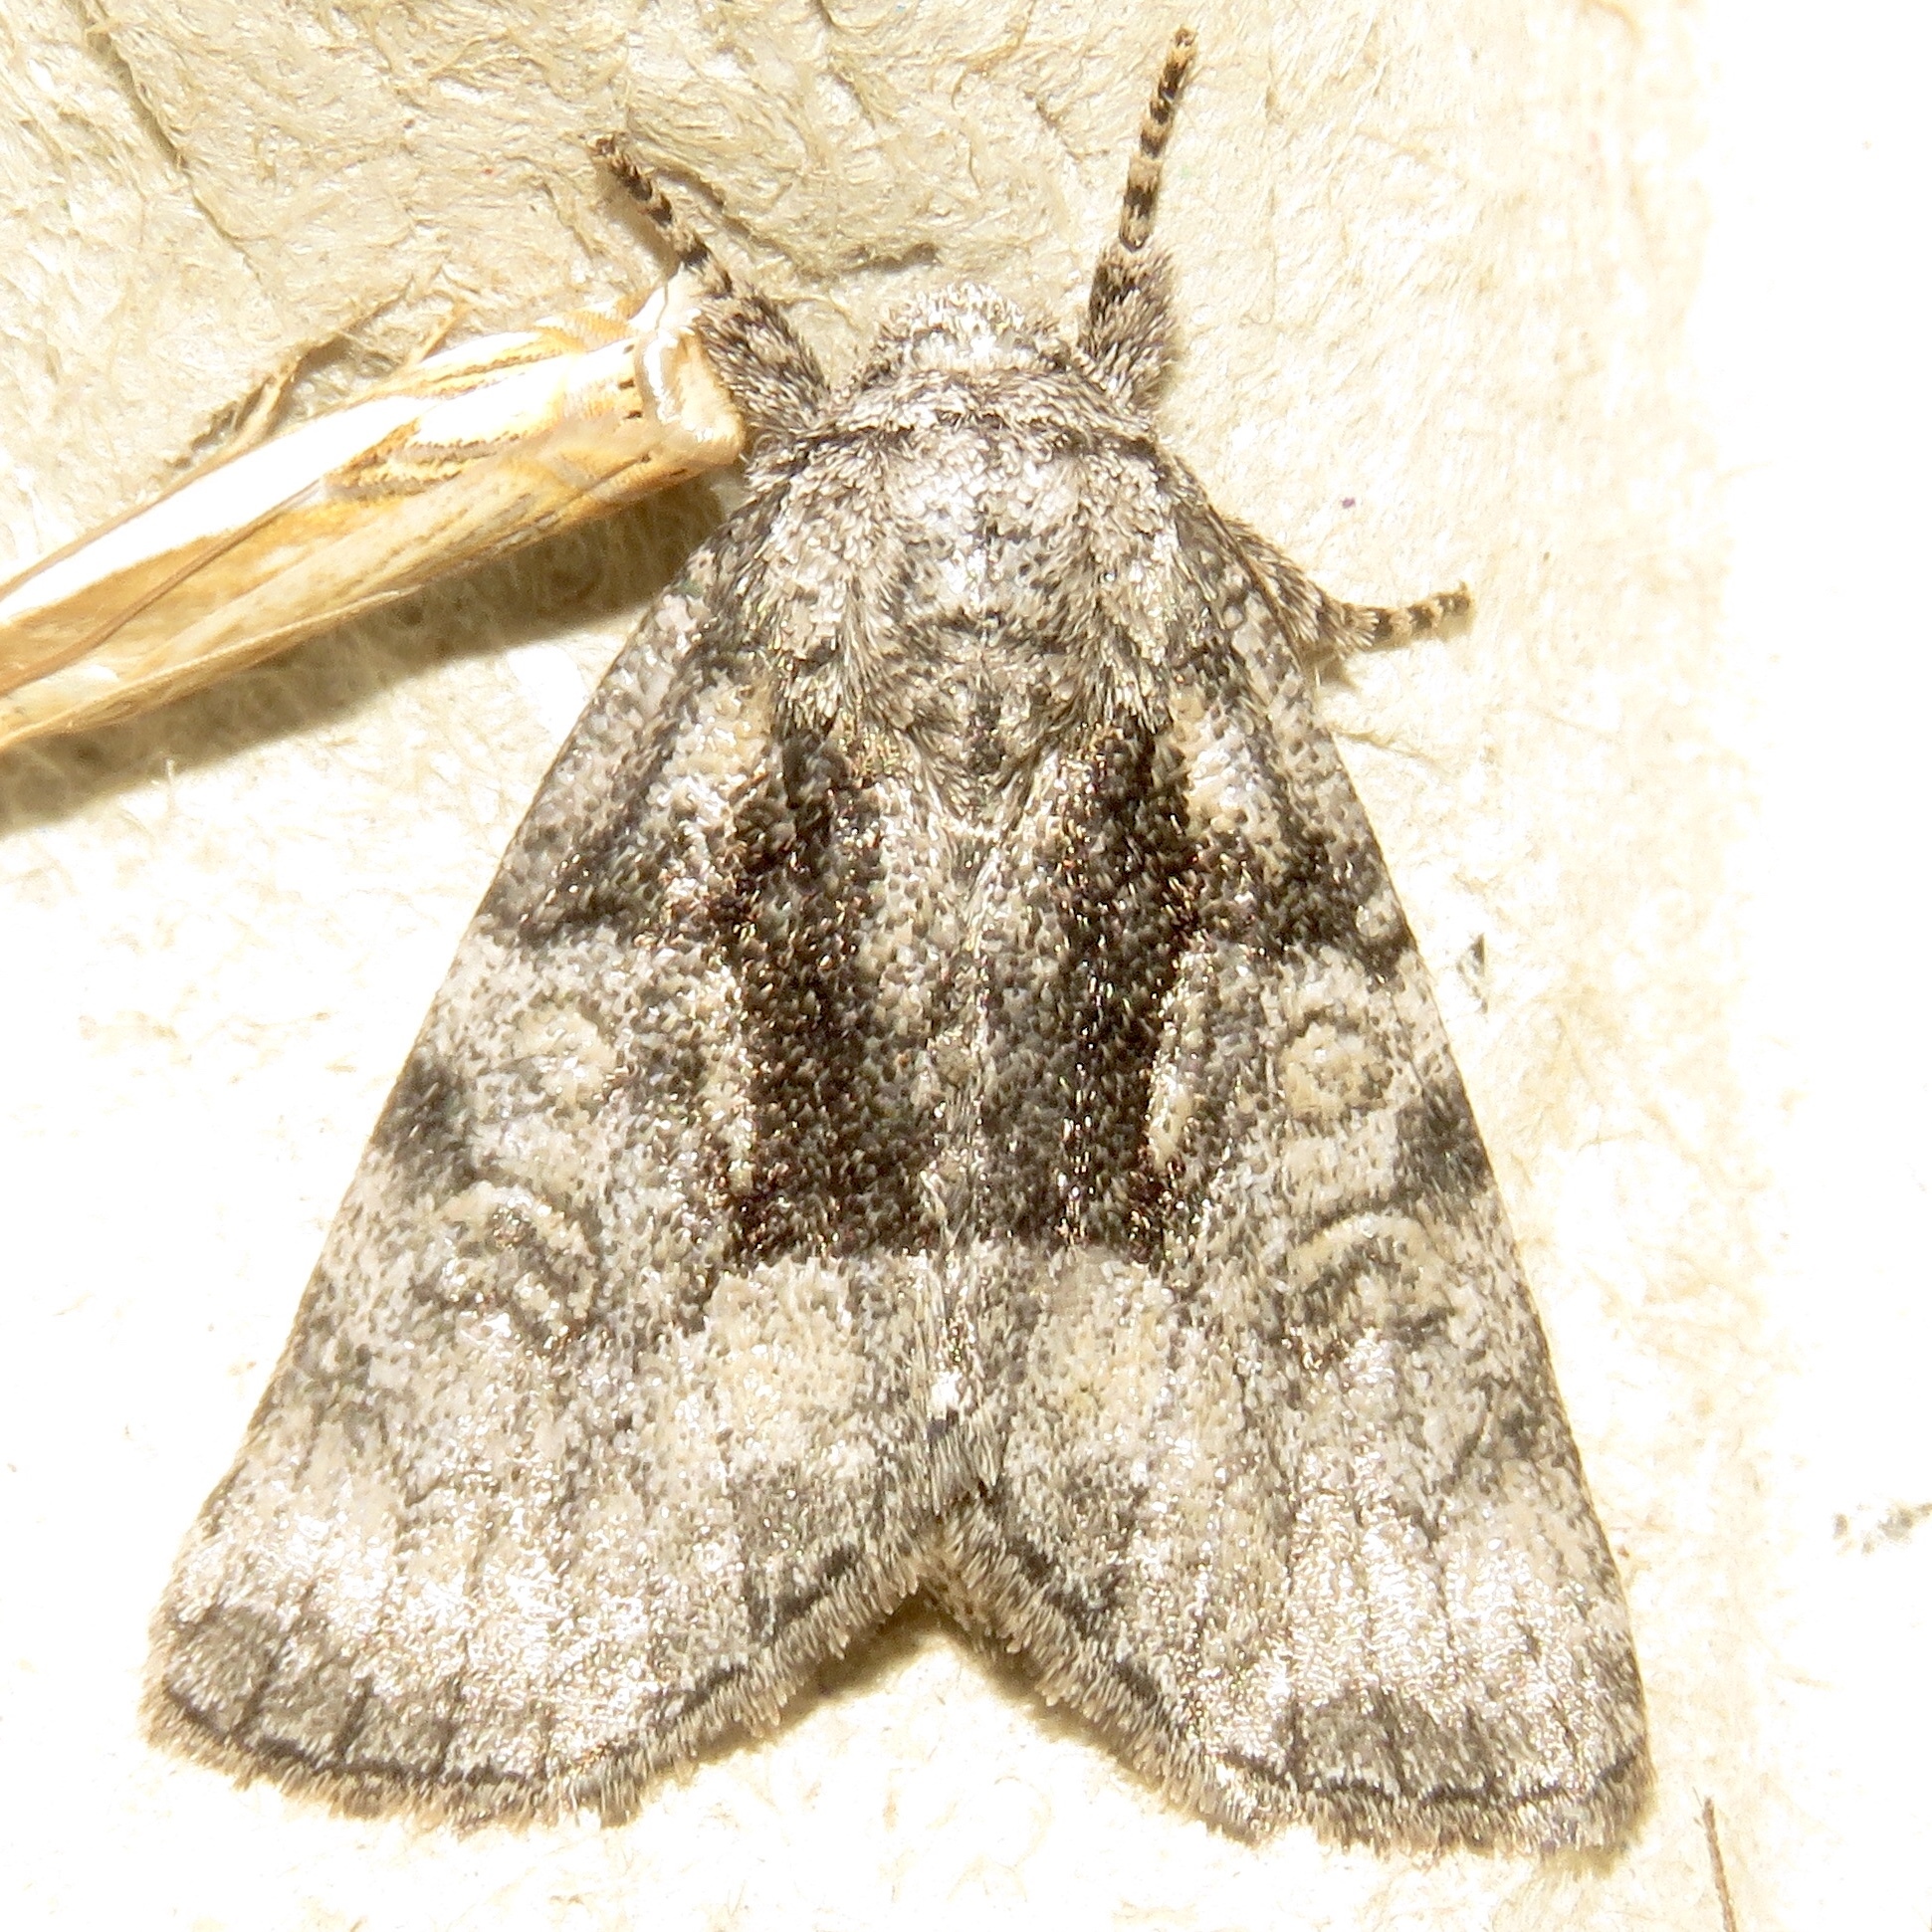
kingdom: Animalia
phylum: Arthropoda
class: Insecta
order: Lepidoptera
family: Noctuidae
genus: Raphia
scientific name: Raphia frater
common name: Brother
